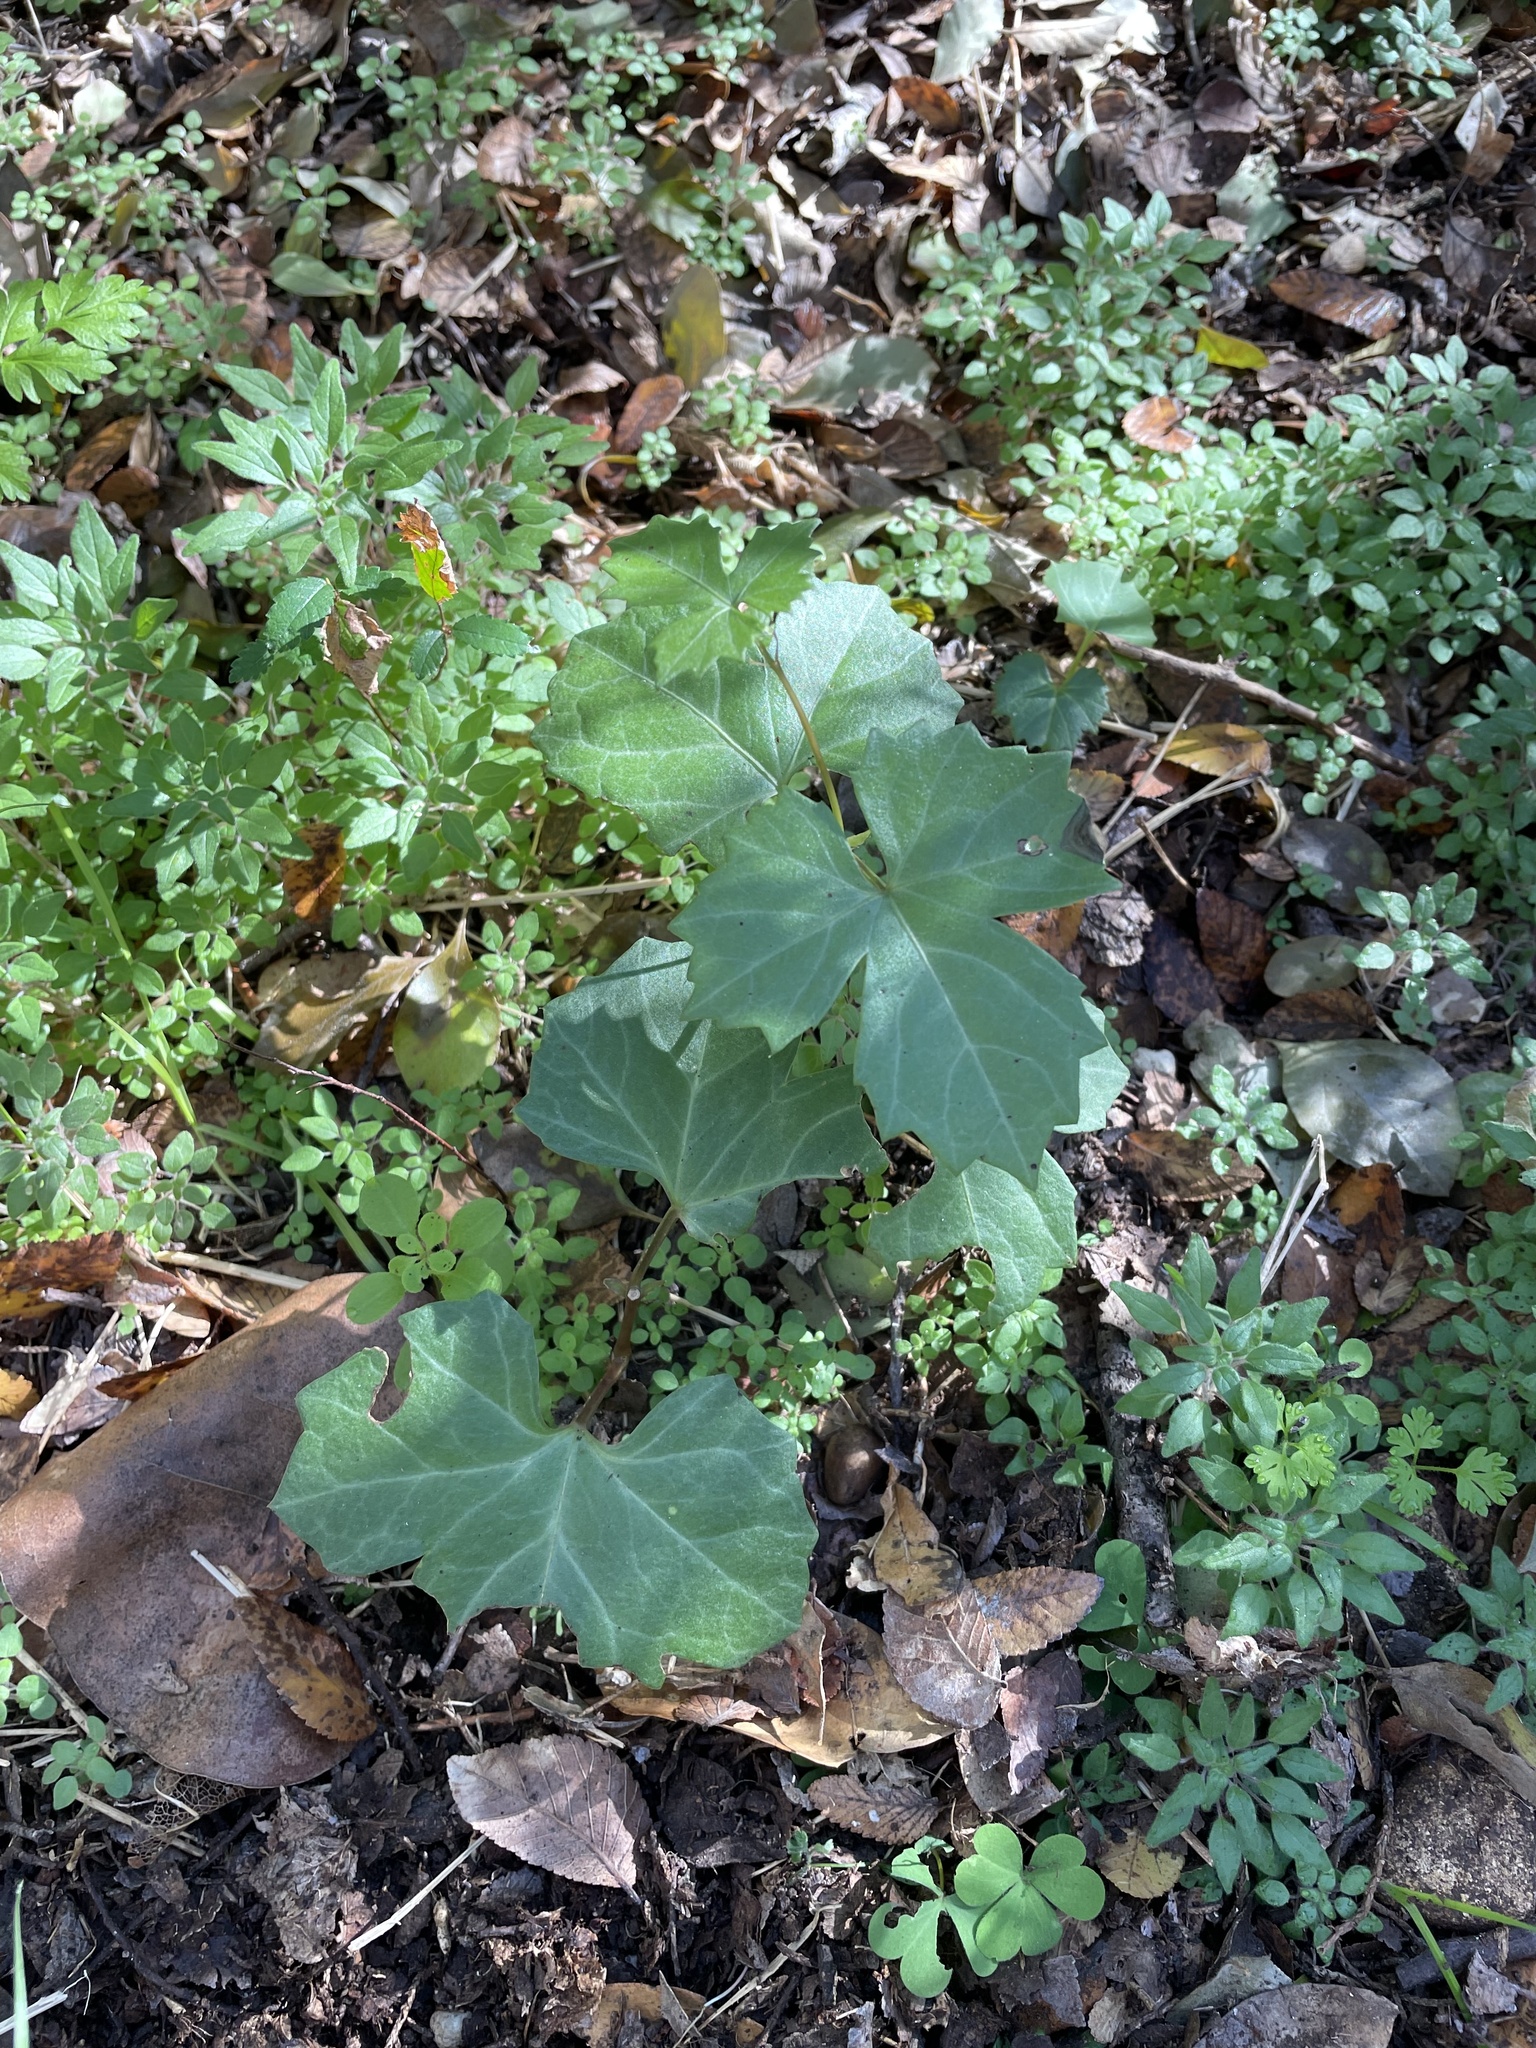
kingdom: Plantae
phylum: Tracheophyta
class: Magnoliopsida
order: Vitales
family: Vitaceae
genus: Cissus
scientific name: Cissus trifoliata
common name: Vine-sorrel
